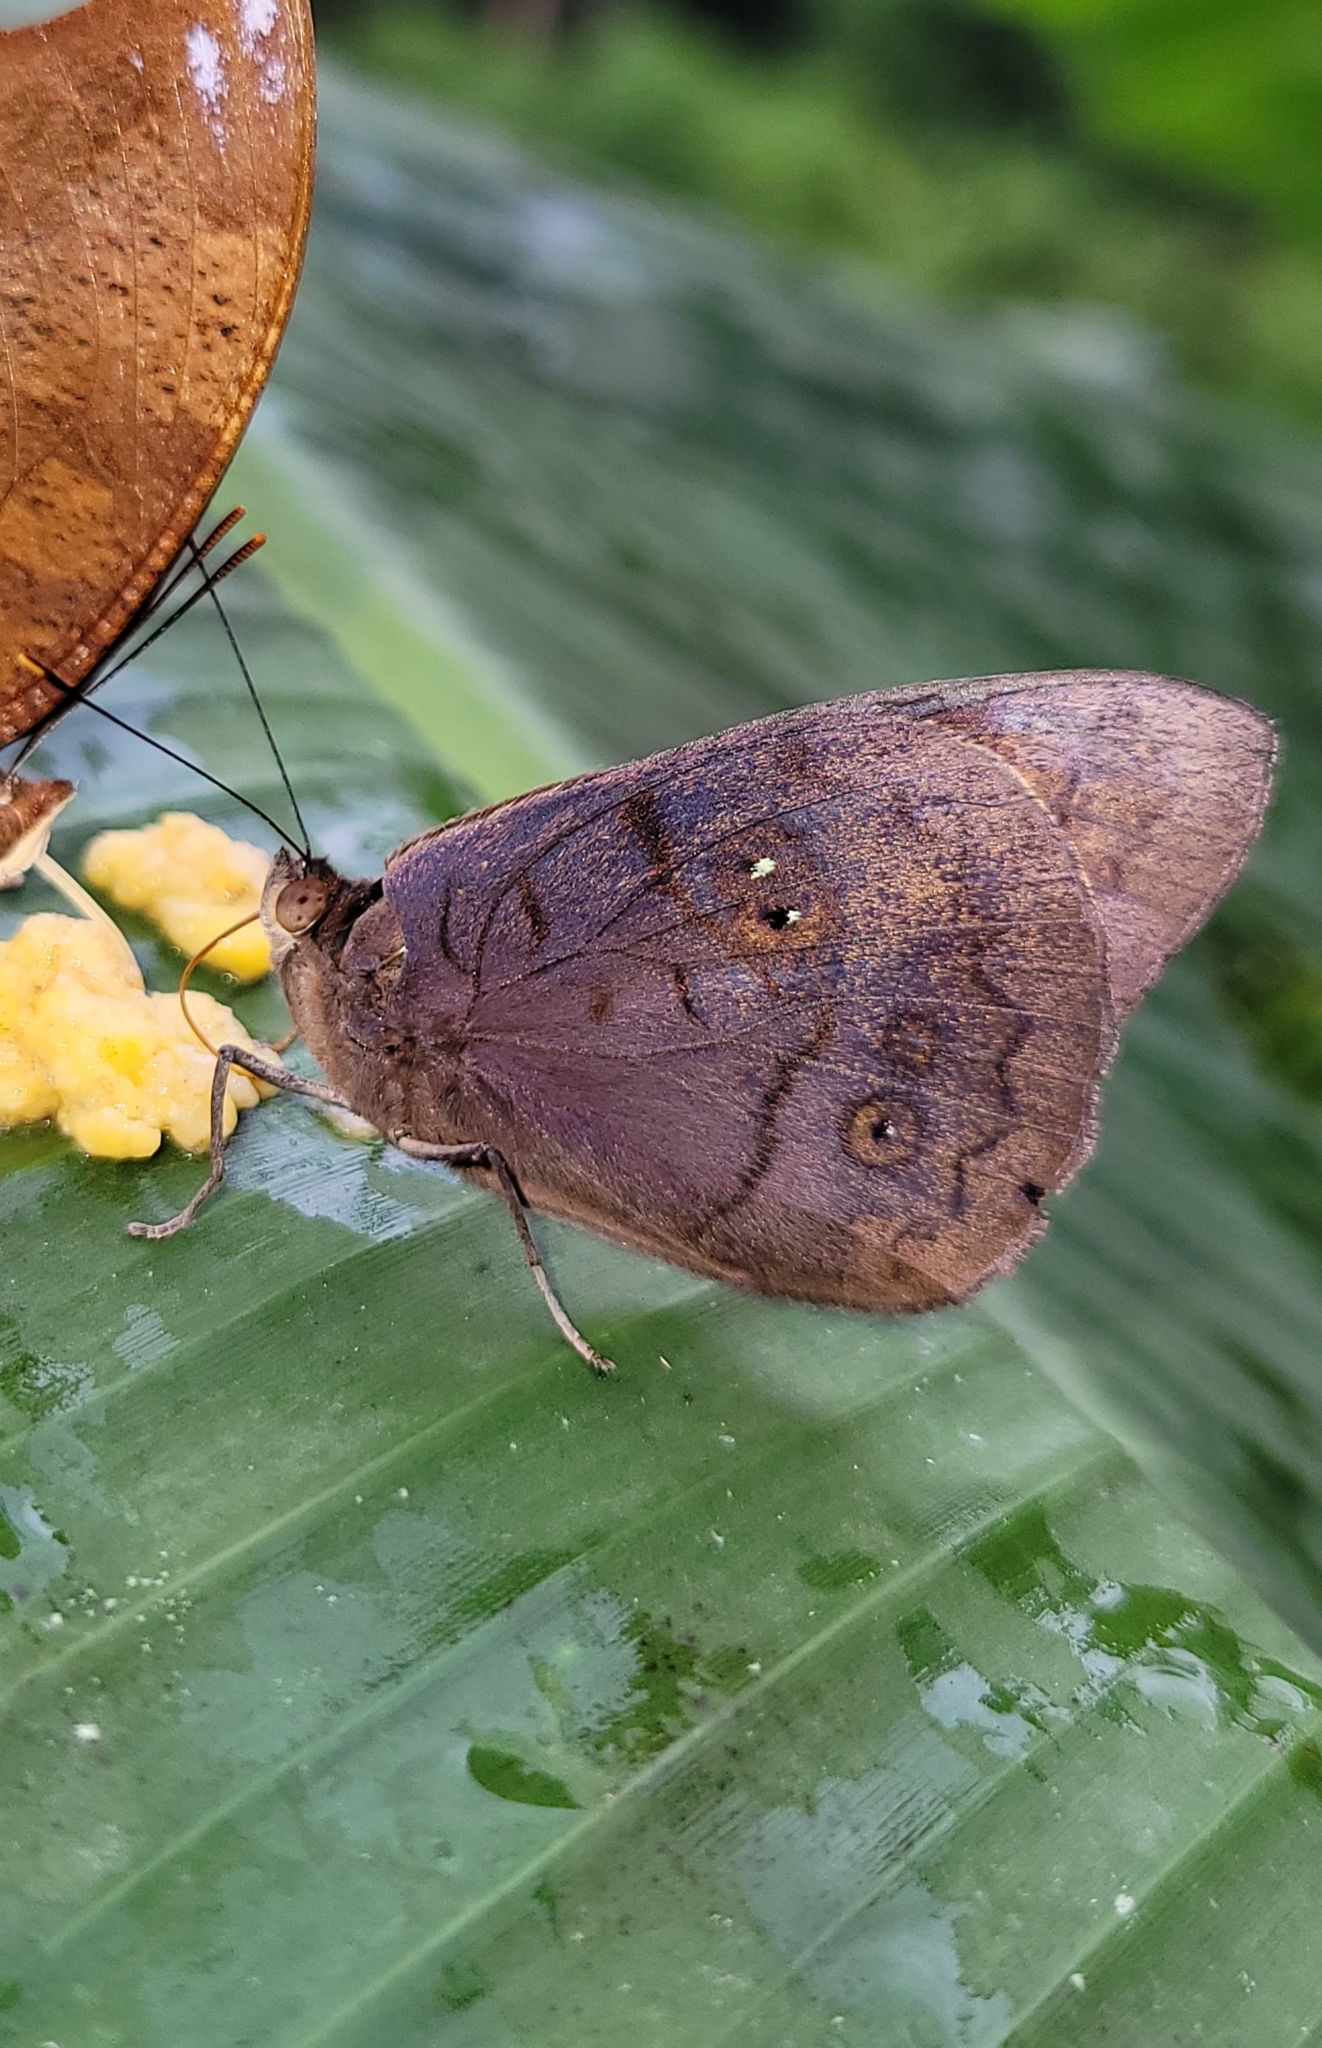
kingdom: Animalia
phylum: Arthropoda
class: Insecta
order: Lepidoptera
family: Nymphalidae
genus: Eunica
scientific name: Eunica eurota
